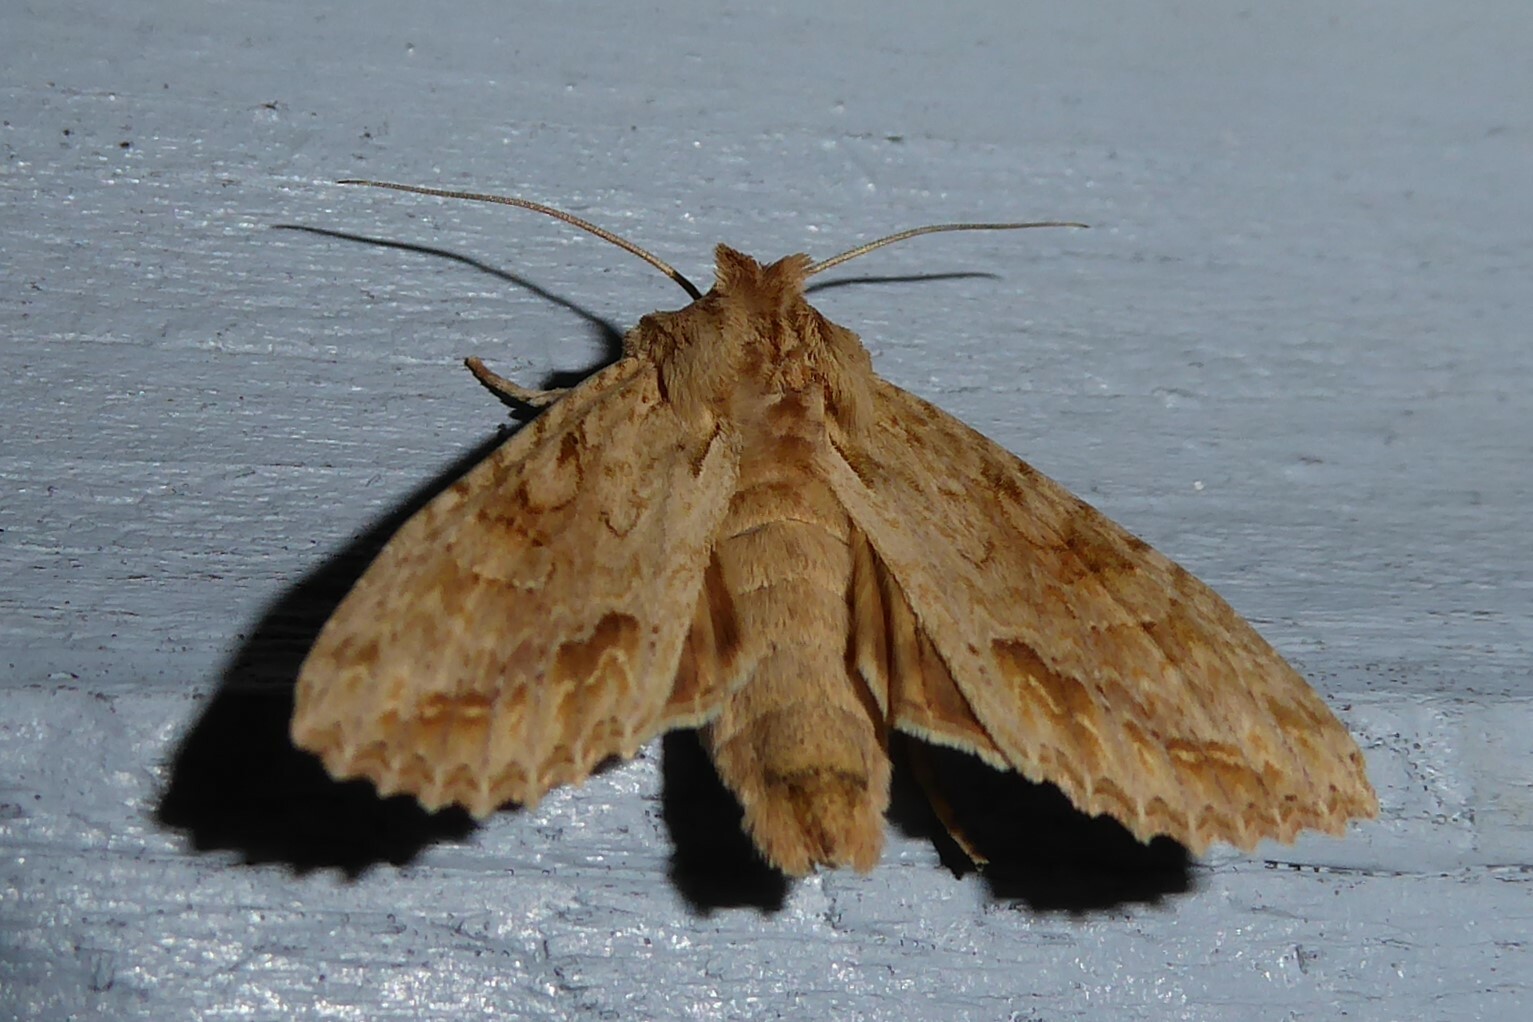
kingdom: Animalia
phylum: Arthropoda
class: Insecta
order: Lepidoptera
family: Noctuidae
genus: Ichneutica
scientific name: Ichneutica mollis
